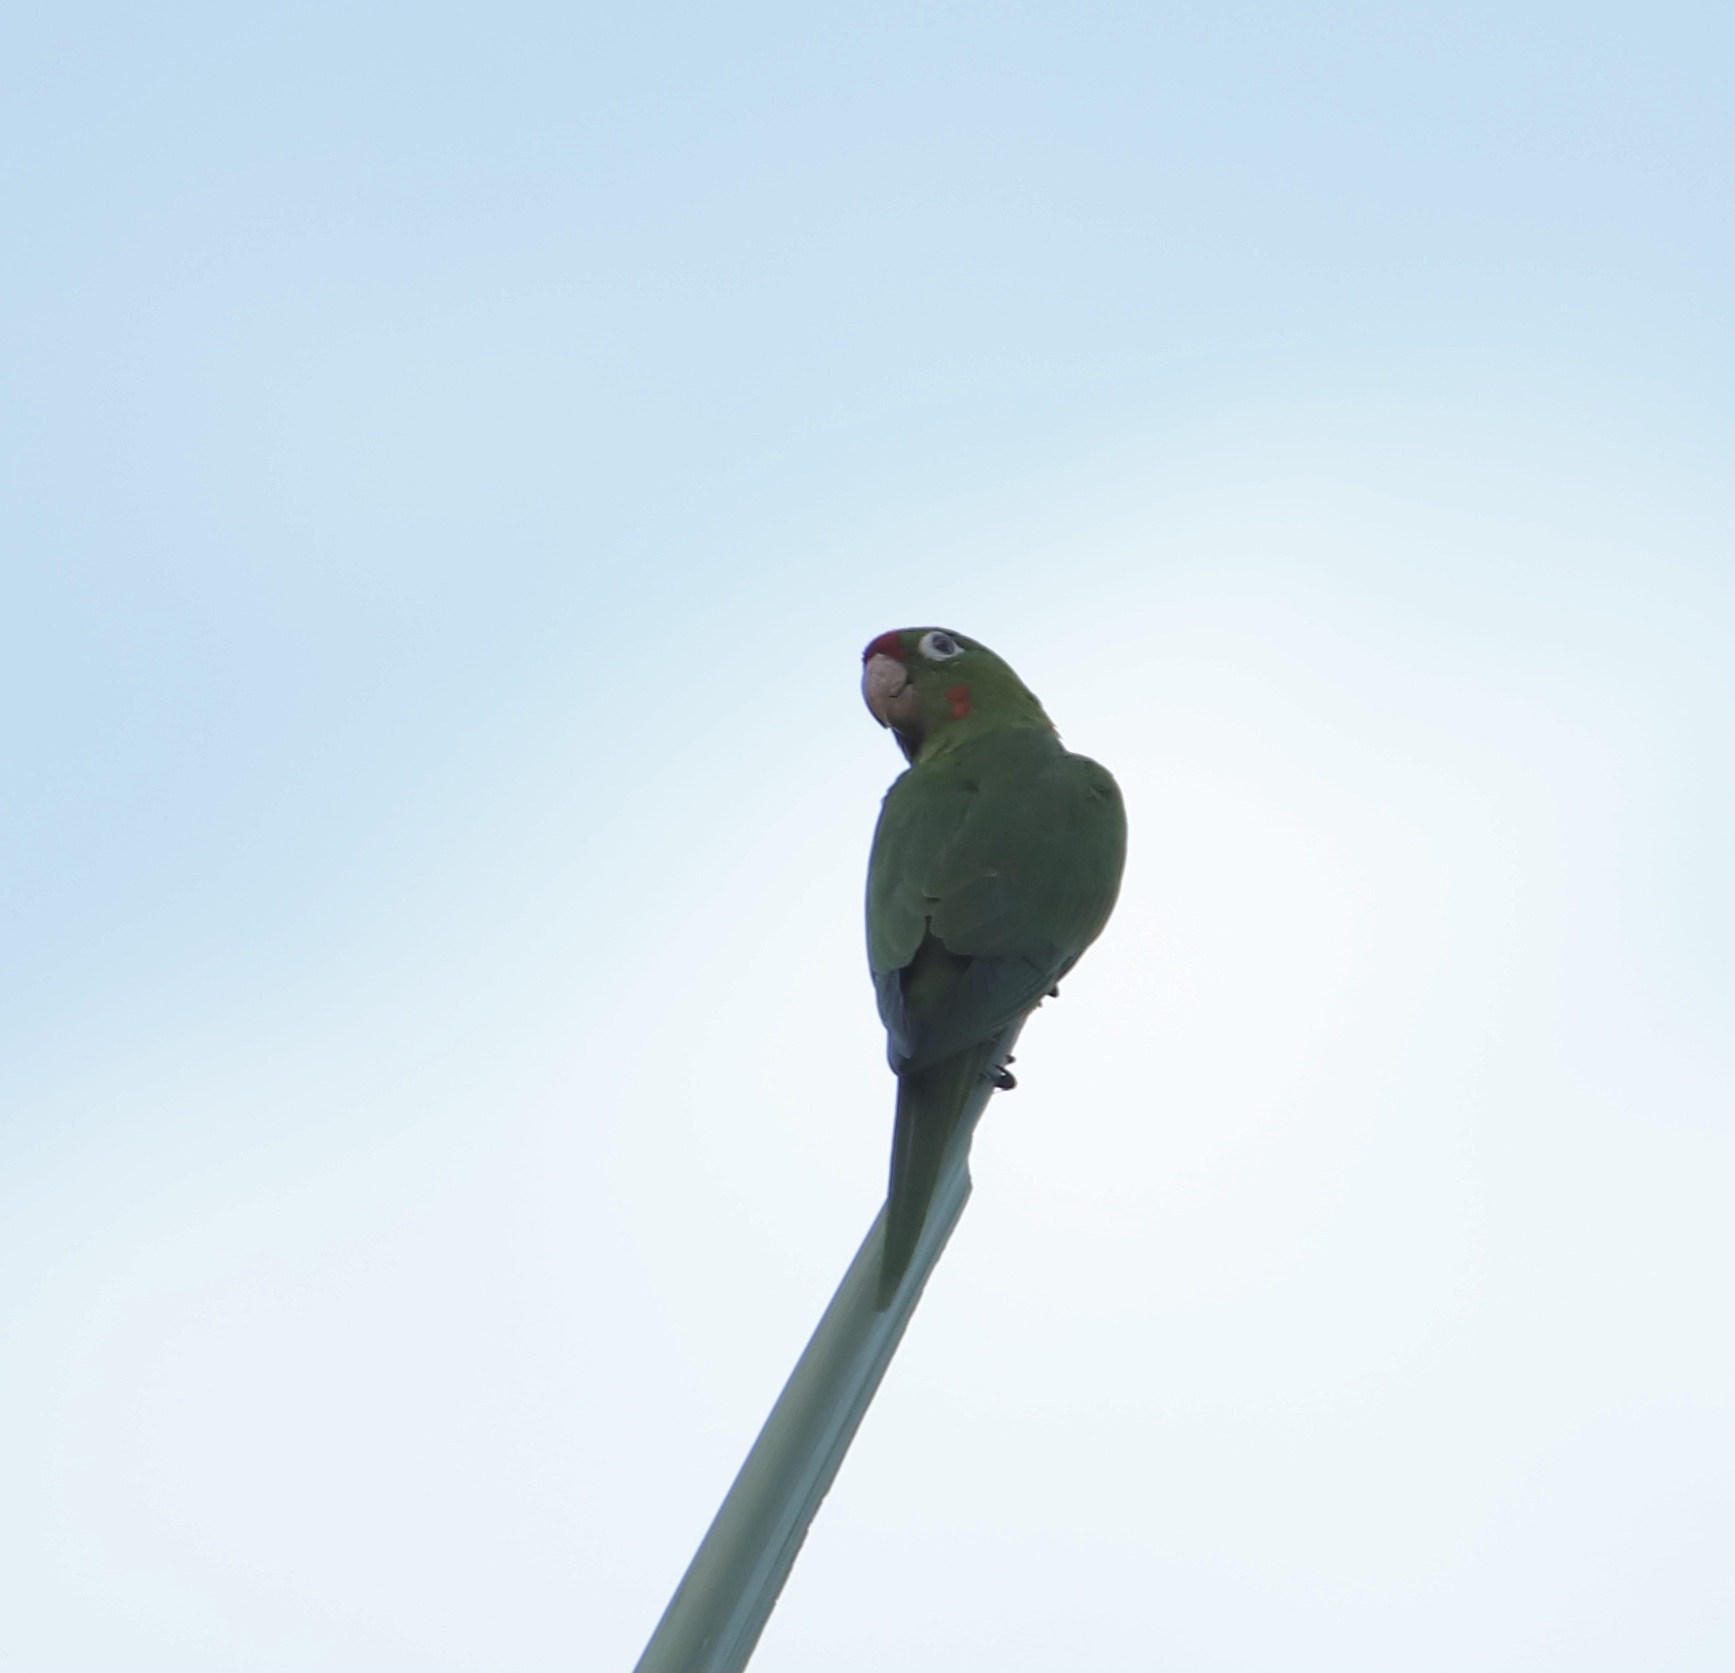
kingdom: Animalia
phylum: Chordata
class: Aves
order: Psittaciformes
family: Psittacidae
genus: Aratinga
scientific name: Aratinga finschi
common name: Crimson-fronted parakeet
